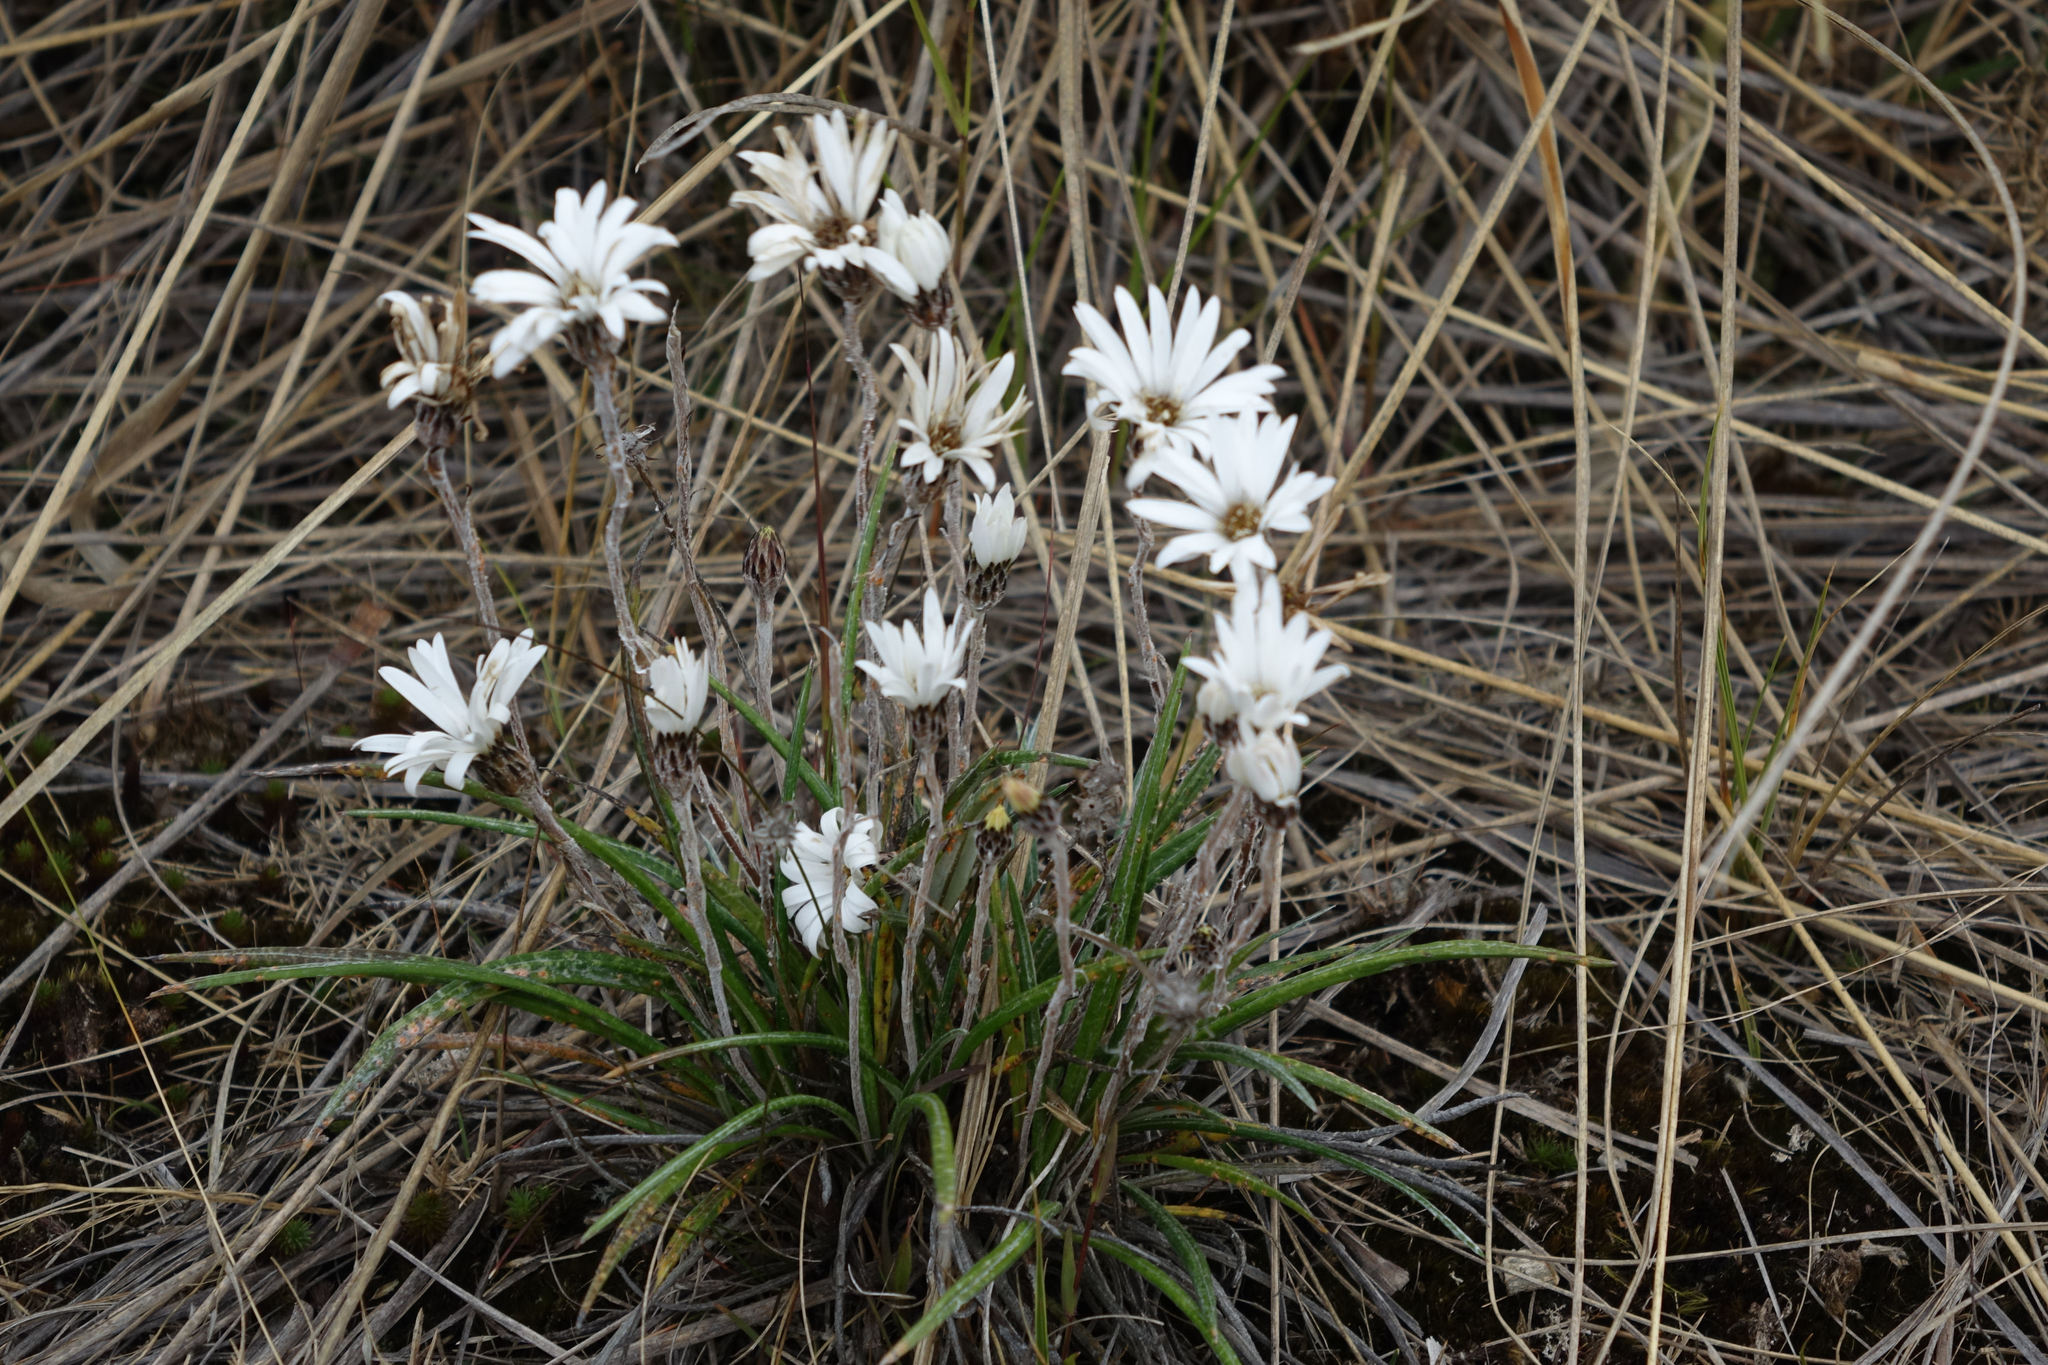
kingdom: Plantae
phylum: Tracheophyta
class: Magnoliopsida
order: Asterales
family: Asteraceae
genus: Celmisia
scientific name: Celmisia gracilenta
